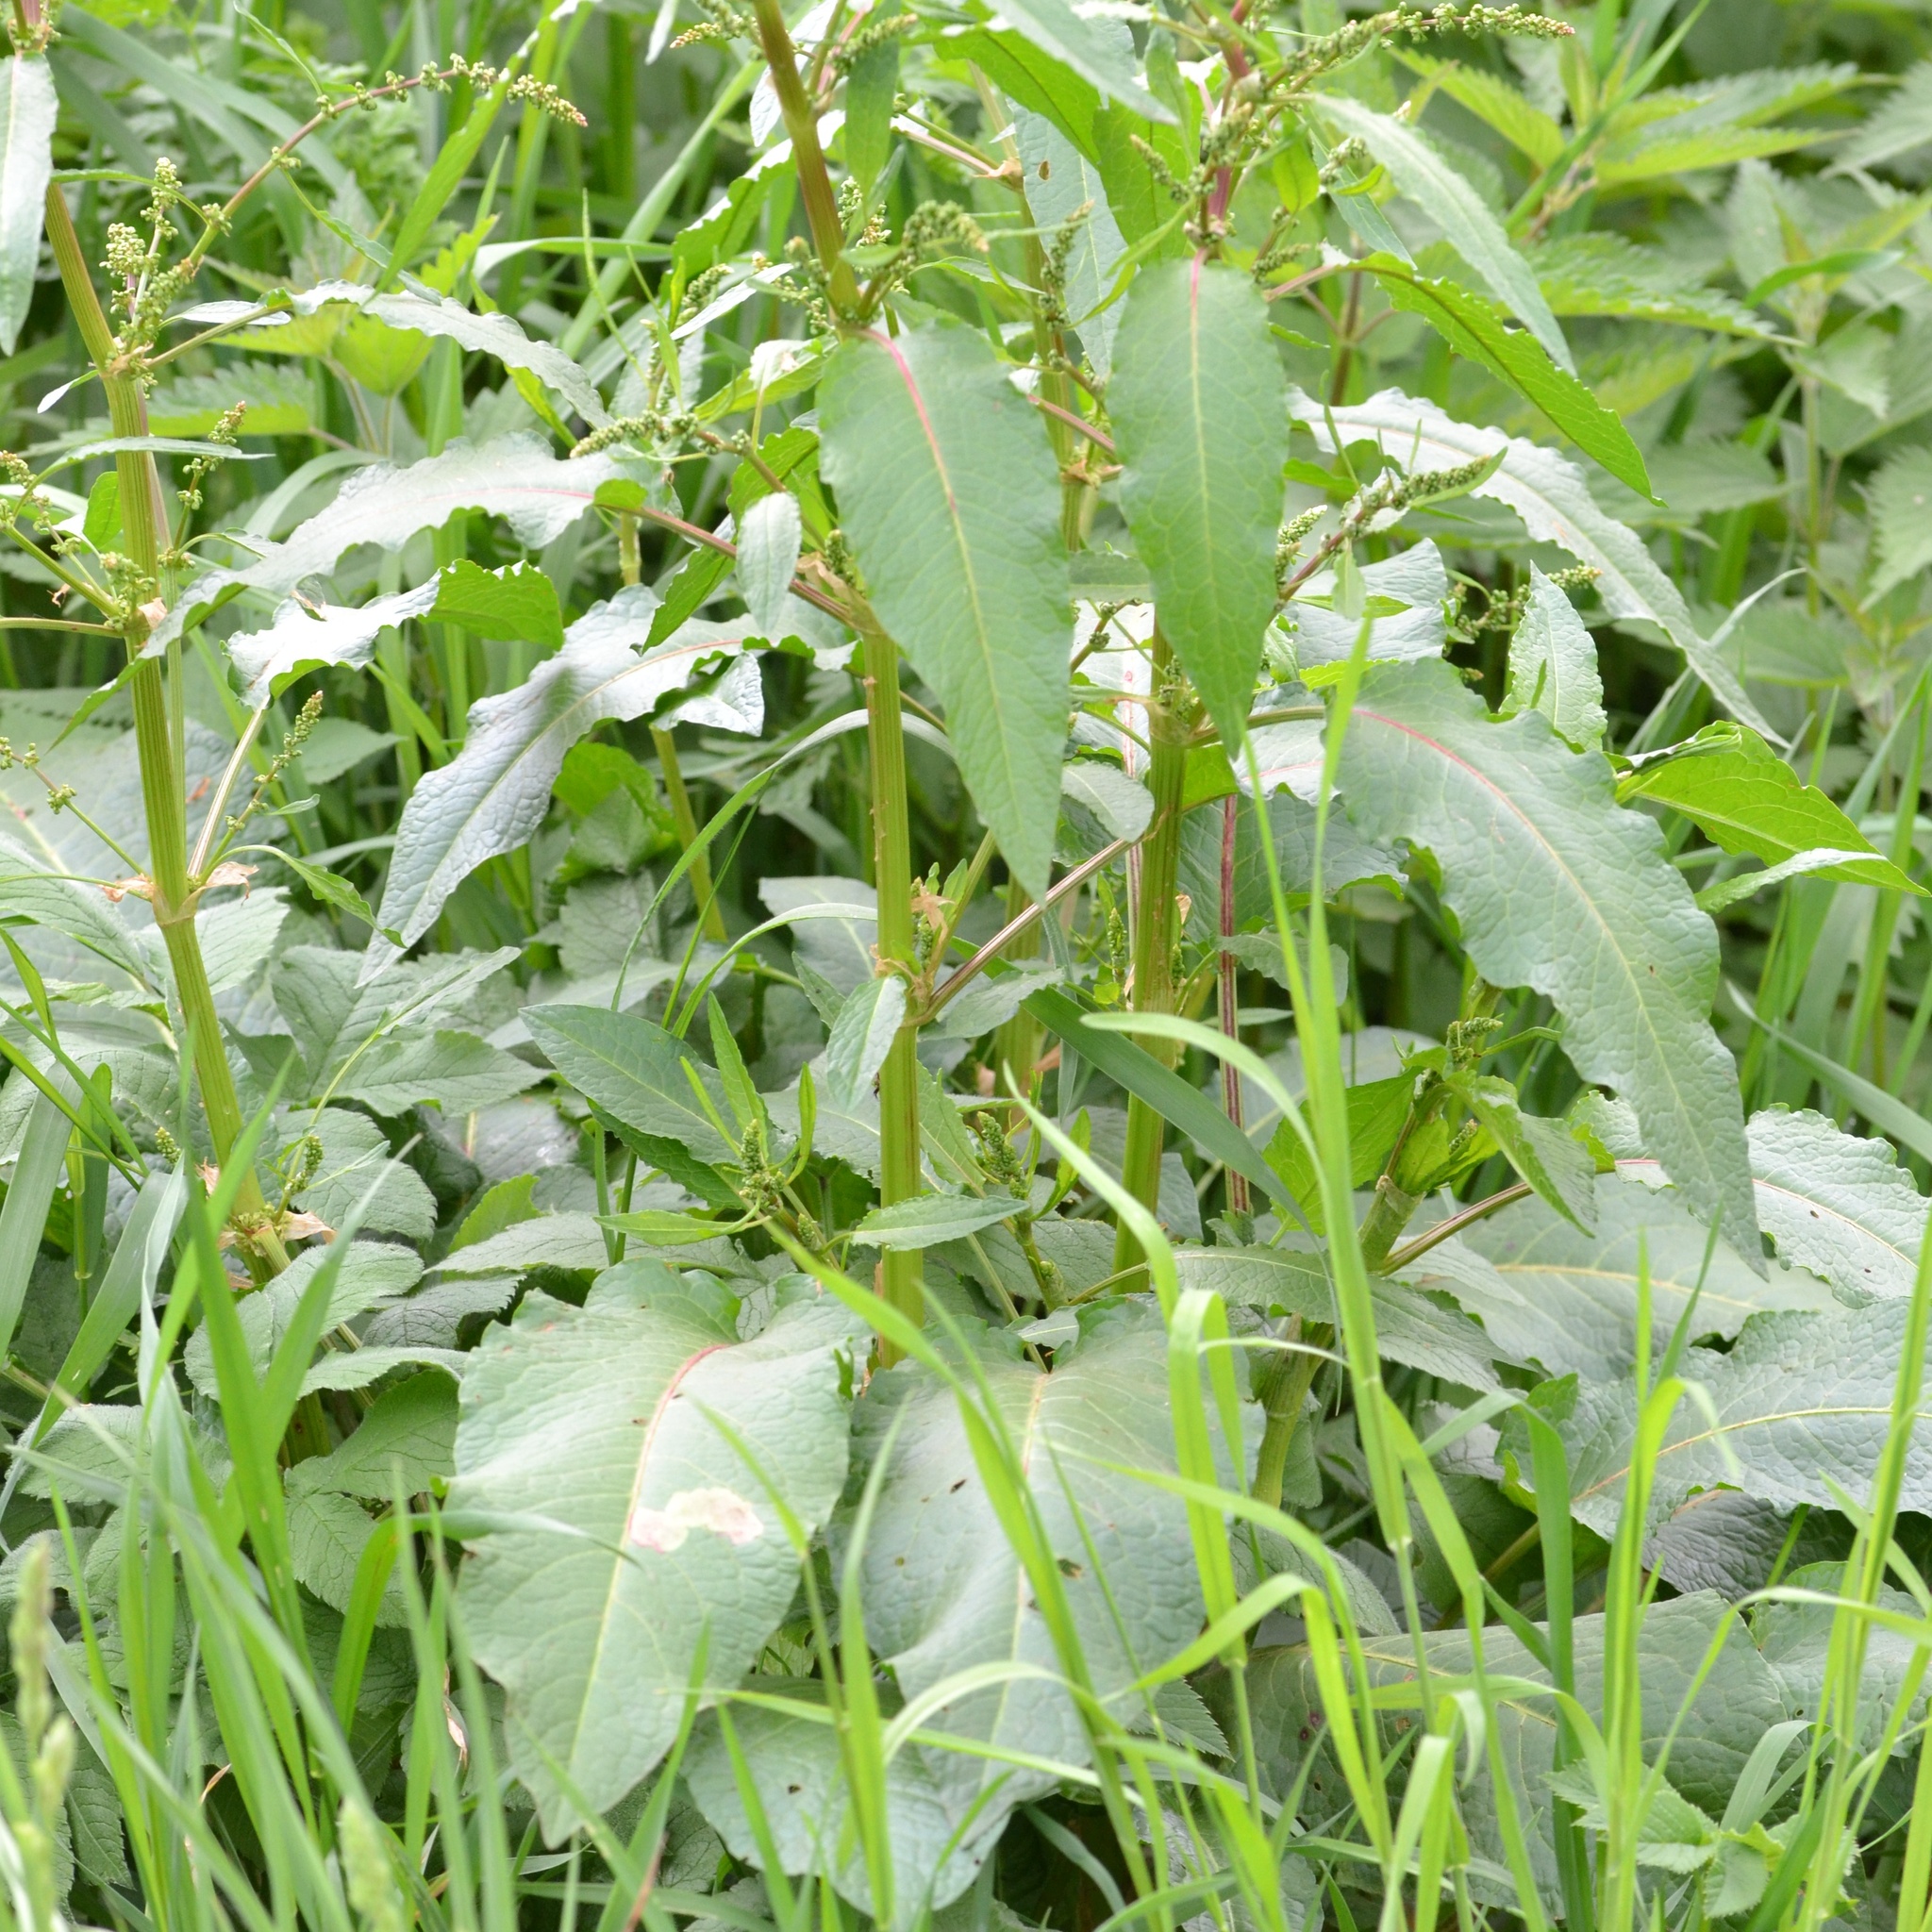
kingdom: Plantae
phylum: Tracheophyta
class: Magnoliopsida
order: Caryophyllales
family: Polygonaceae
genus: Rumex
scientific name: Rumex obtusifolius
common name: Bitter dock
